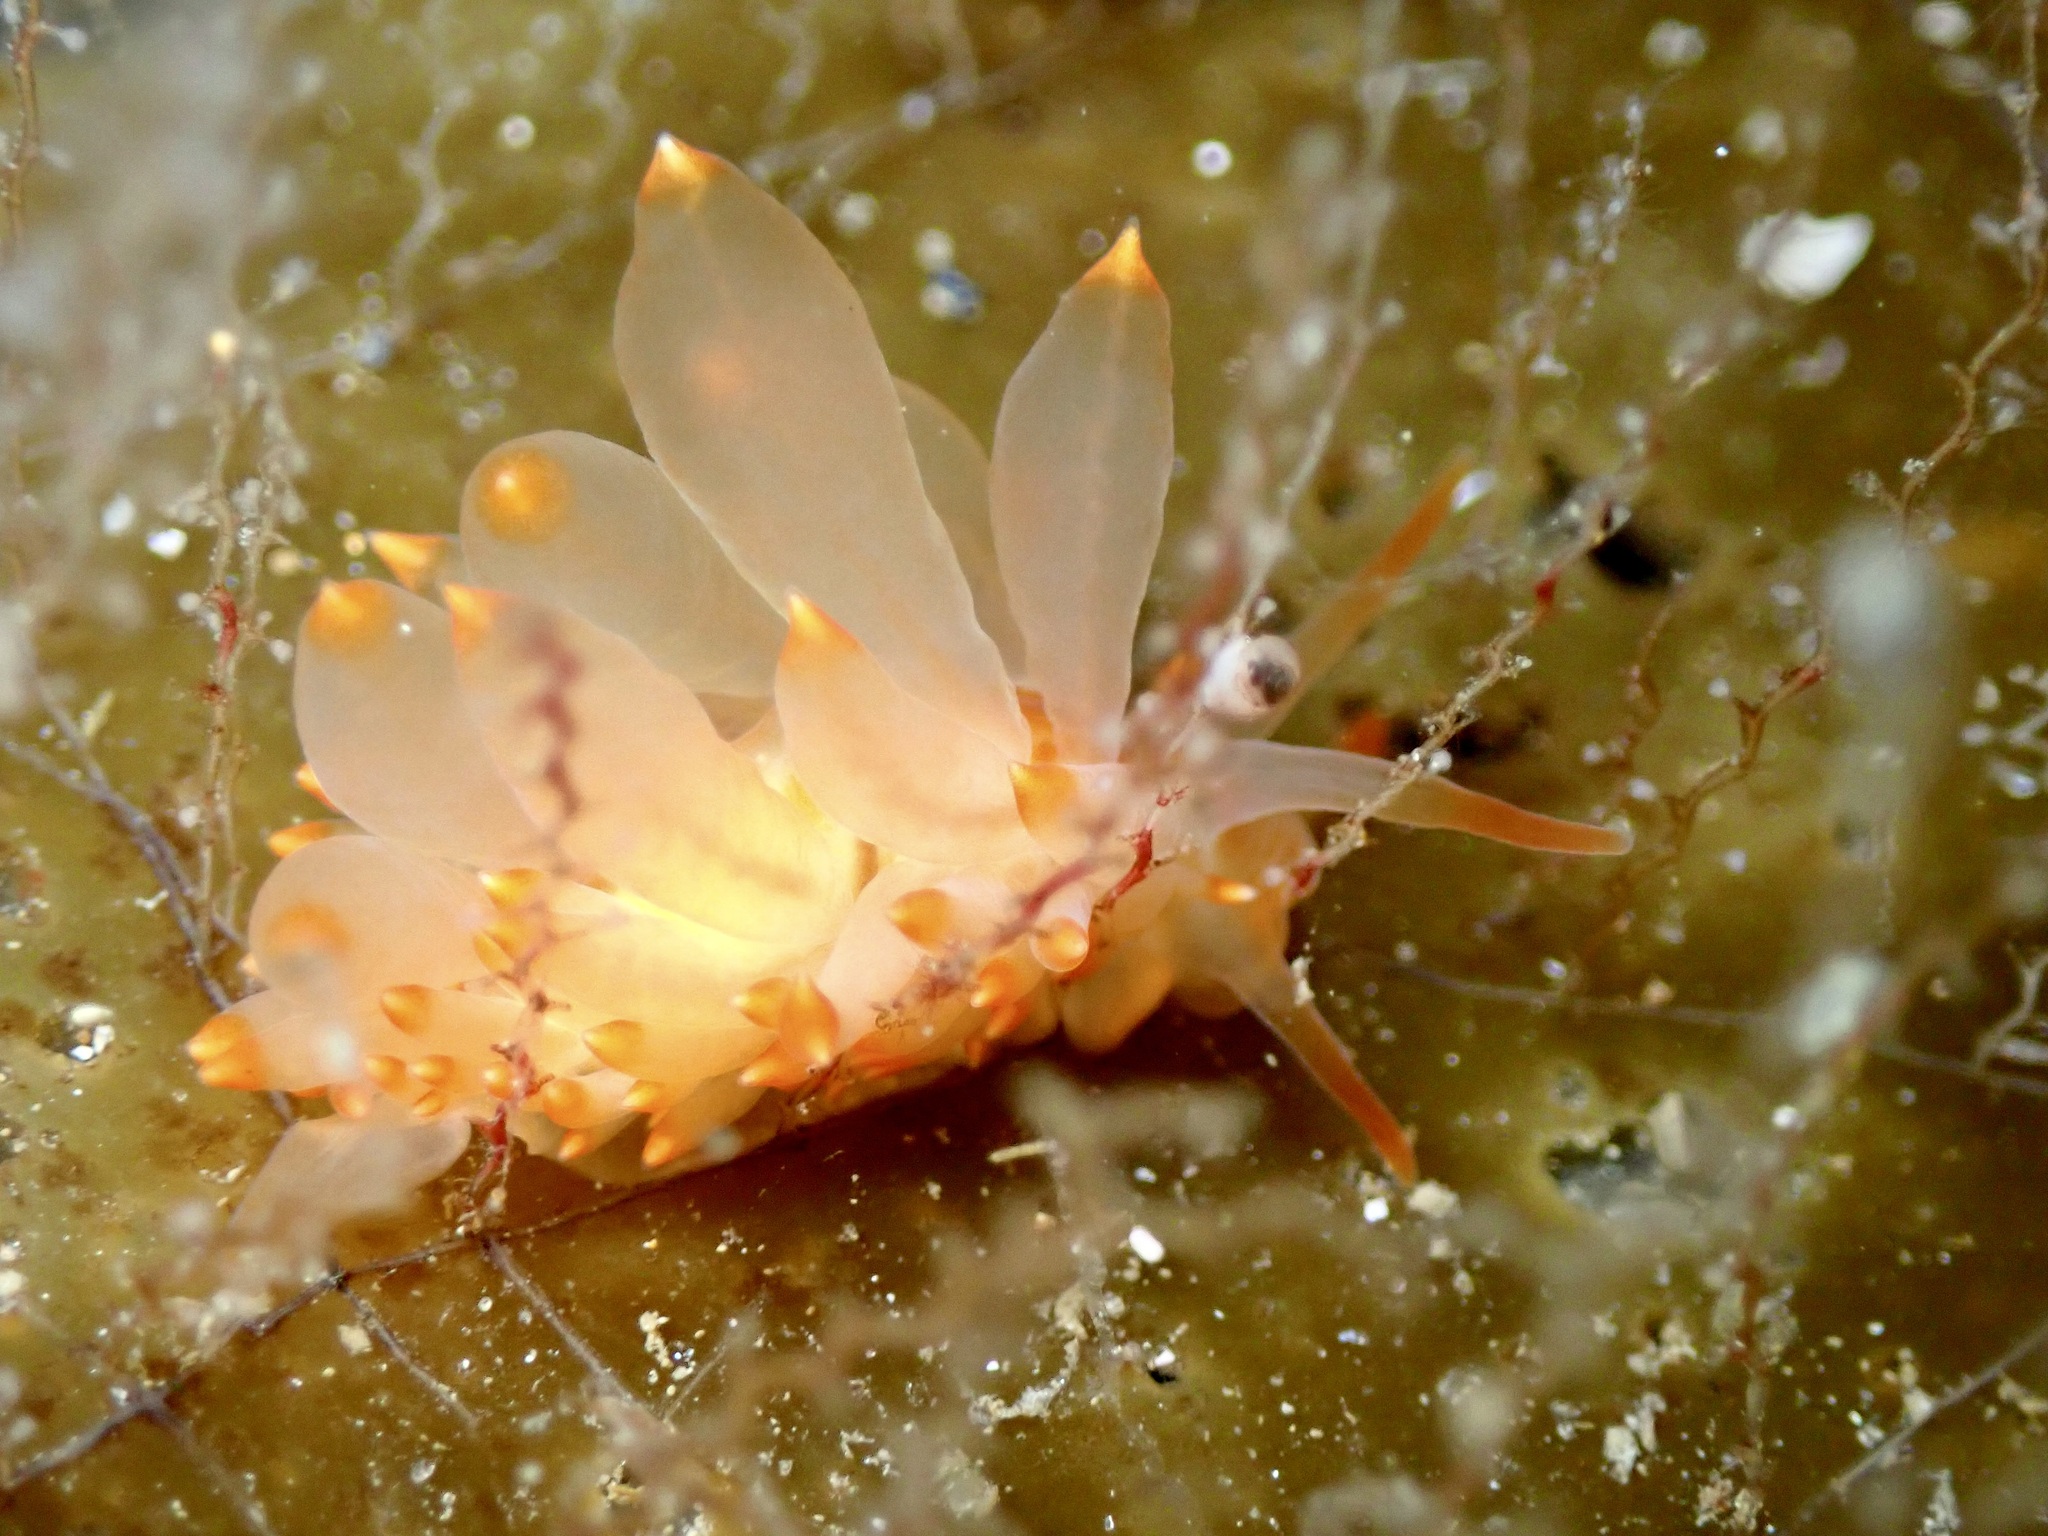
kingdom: Animalia
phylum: Mollusca
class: Gastropoda
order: Nudibranchia
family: Eubranchidae
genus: Amphorina
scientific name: Amphorina farrani
